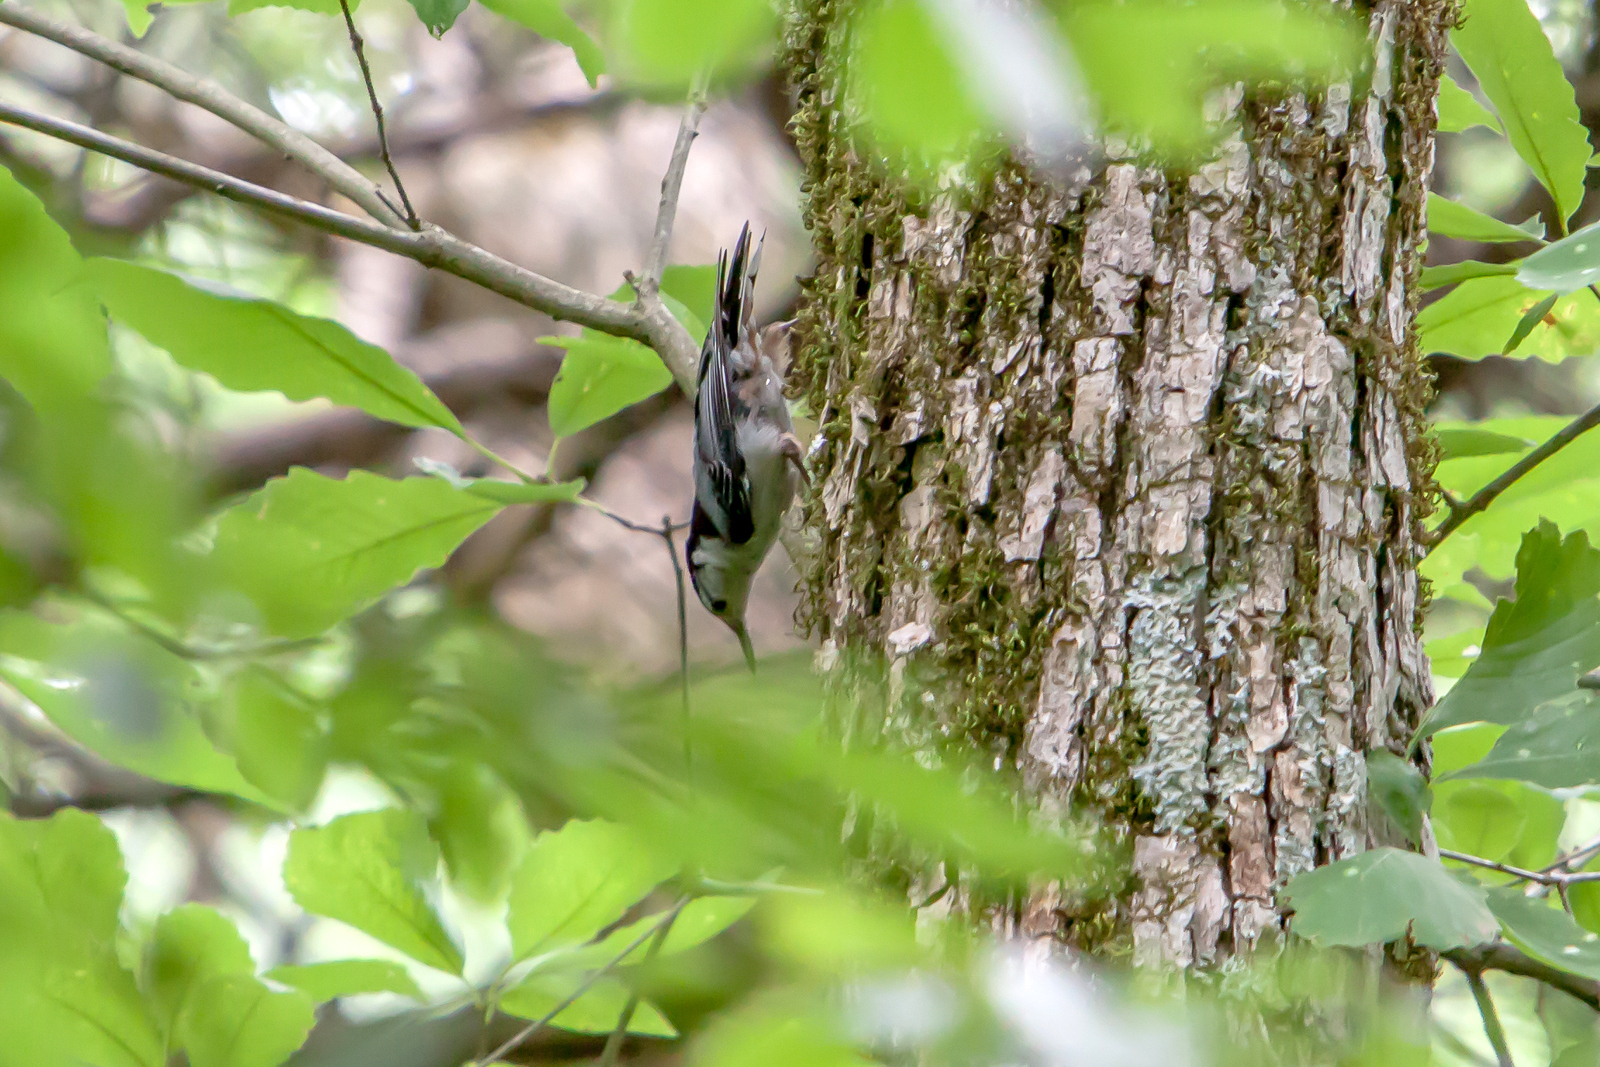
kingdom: Animalia
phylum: Chordata
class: Aves
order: Passeriformes
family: Sittidae
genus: Sitta
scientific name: Sitta carolinensis
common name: White-breasted nuthatch
